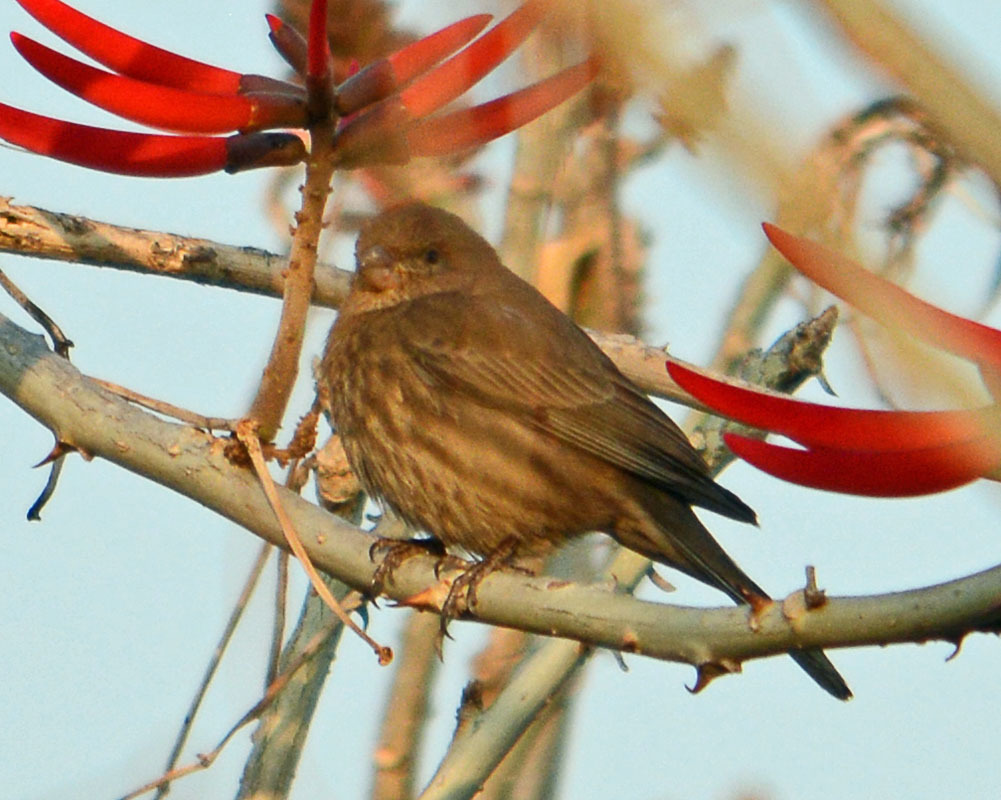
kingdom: Animalia
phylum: Chordata
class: Aves
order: Passeriformes
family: Fringillidae
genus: Haemorhous
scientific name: Haemorhous mexicanus
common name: House finch
